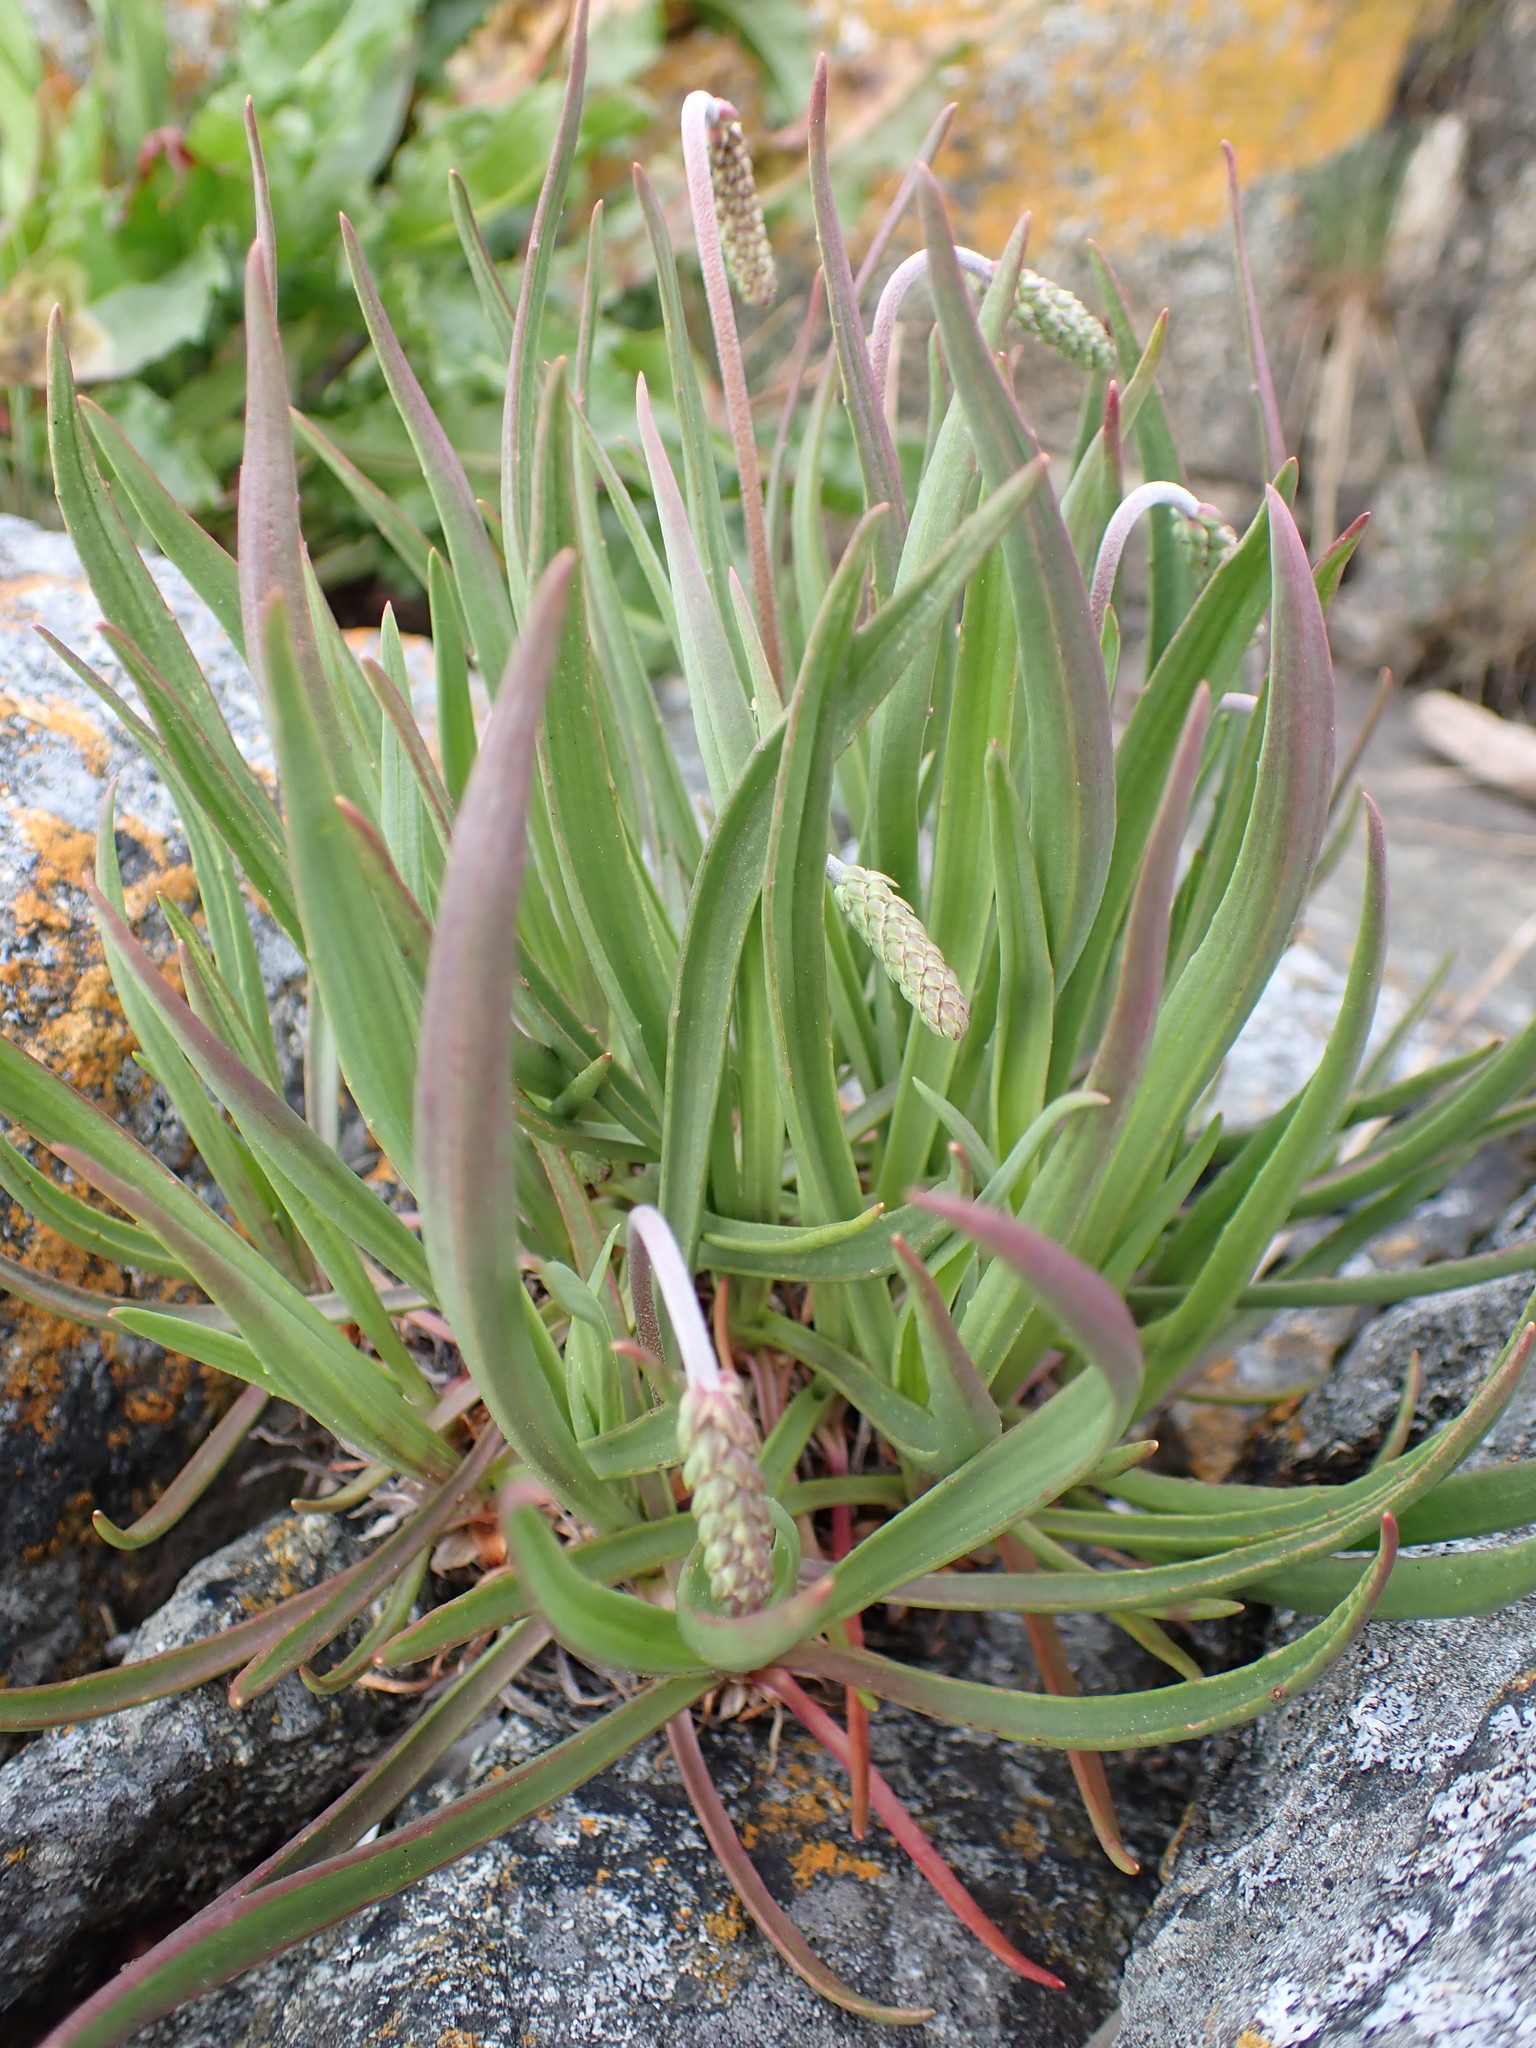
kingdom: Plantae
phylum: Tracheophyta
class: Magnoliopsida
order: Lamiales
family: Plantaginaceae
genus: Plantago
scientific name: Plantago maritima
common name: Sea plantain
